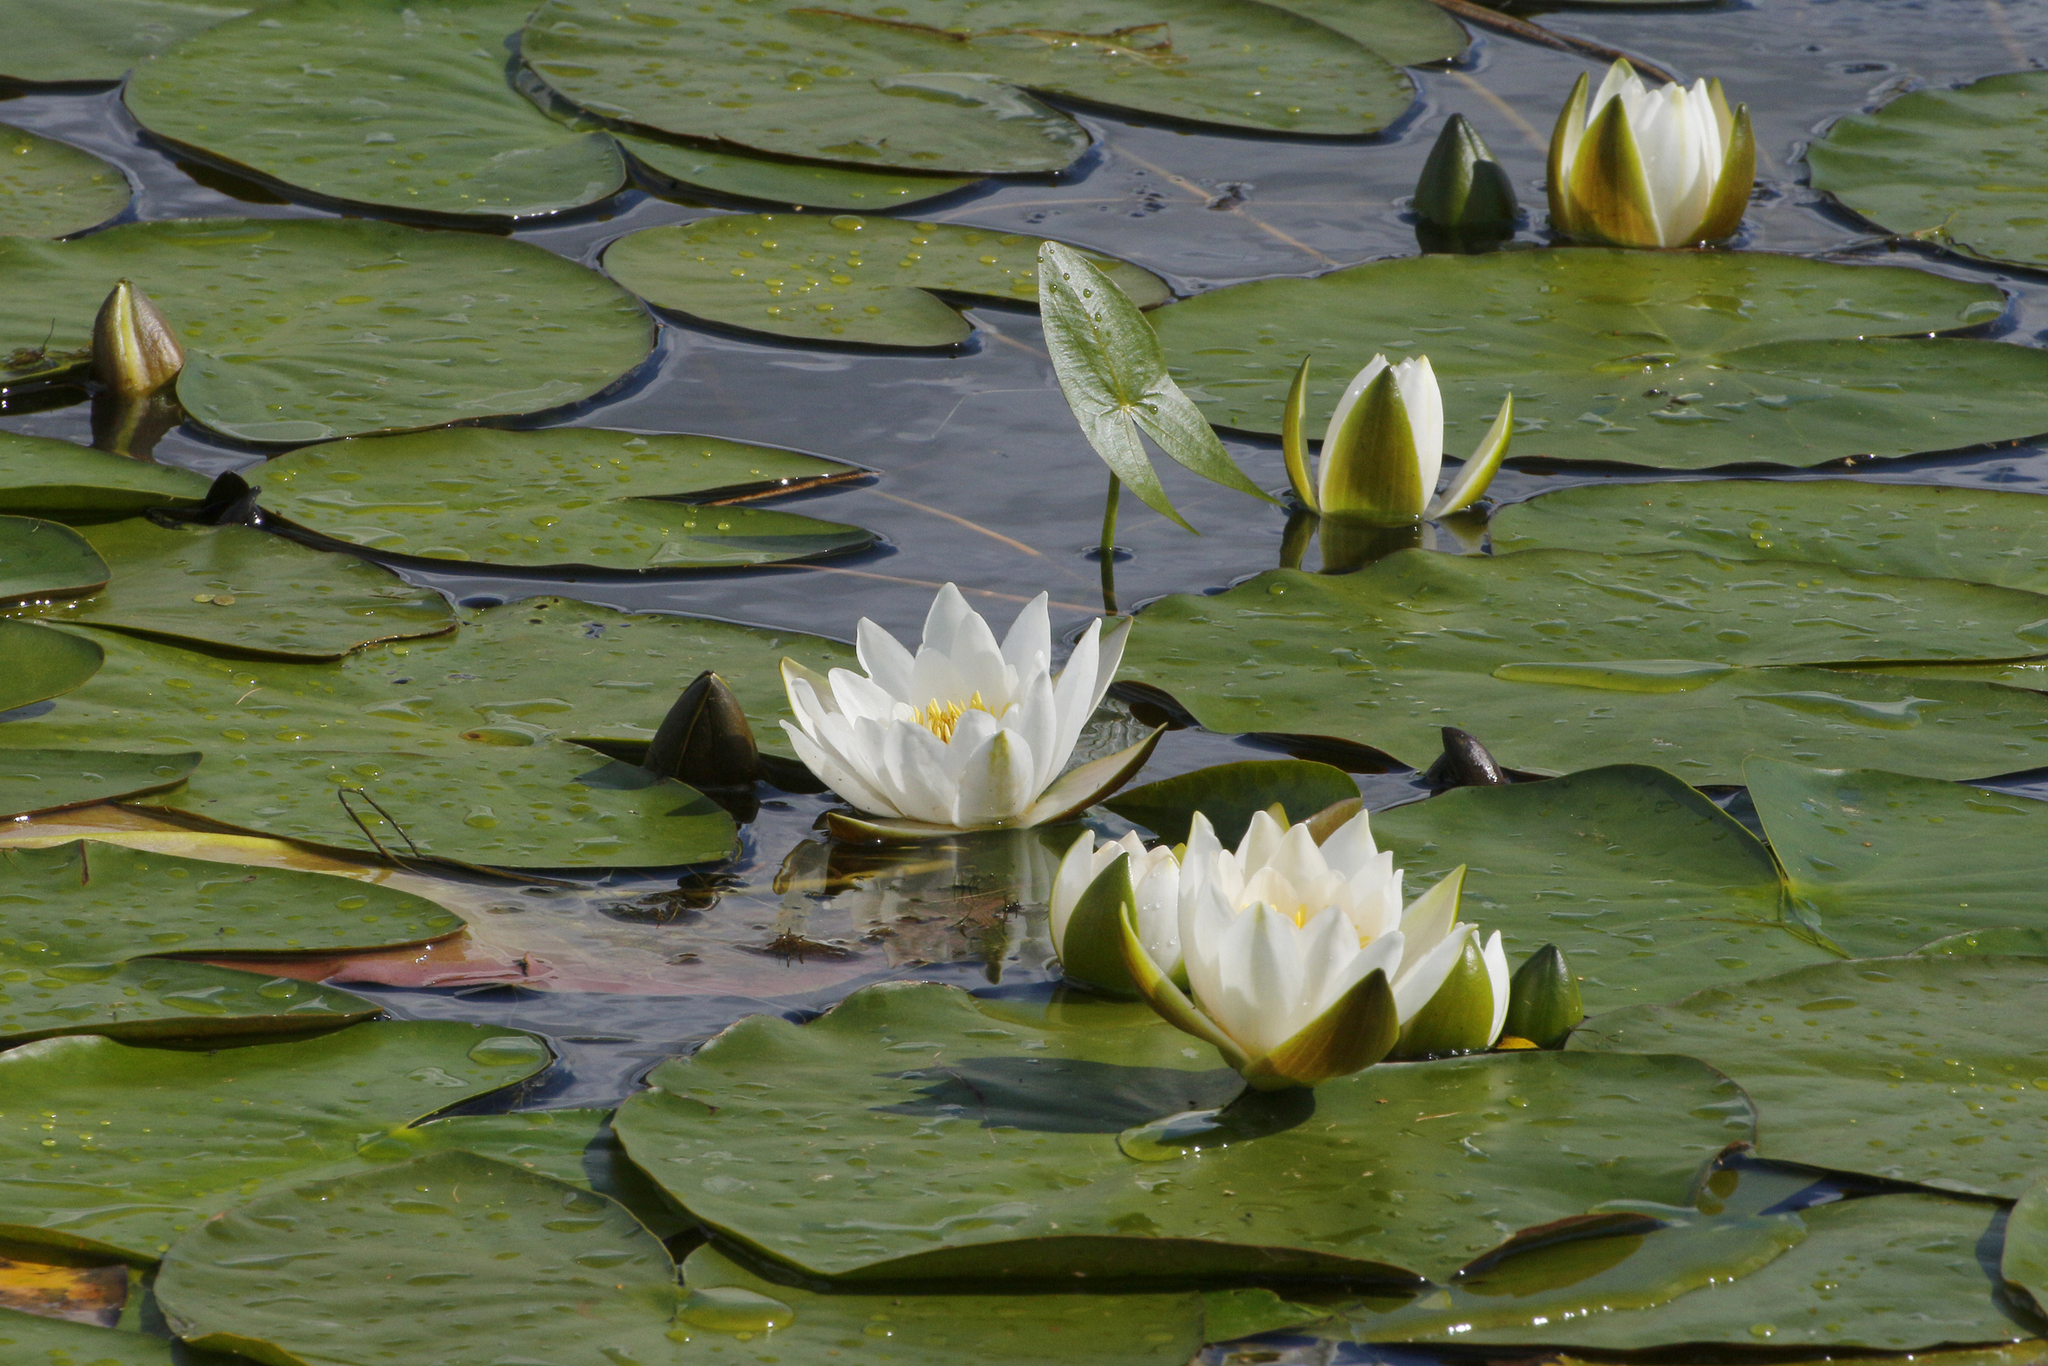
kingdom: Plantae
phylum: Tracheophyta
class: Magnoliopsida
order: Nymphaeales
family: Nymphaeaceae
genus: Nymphaea
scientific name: Nymphaea candida
